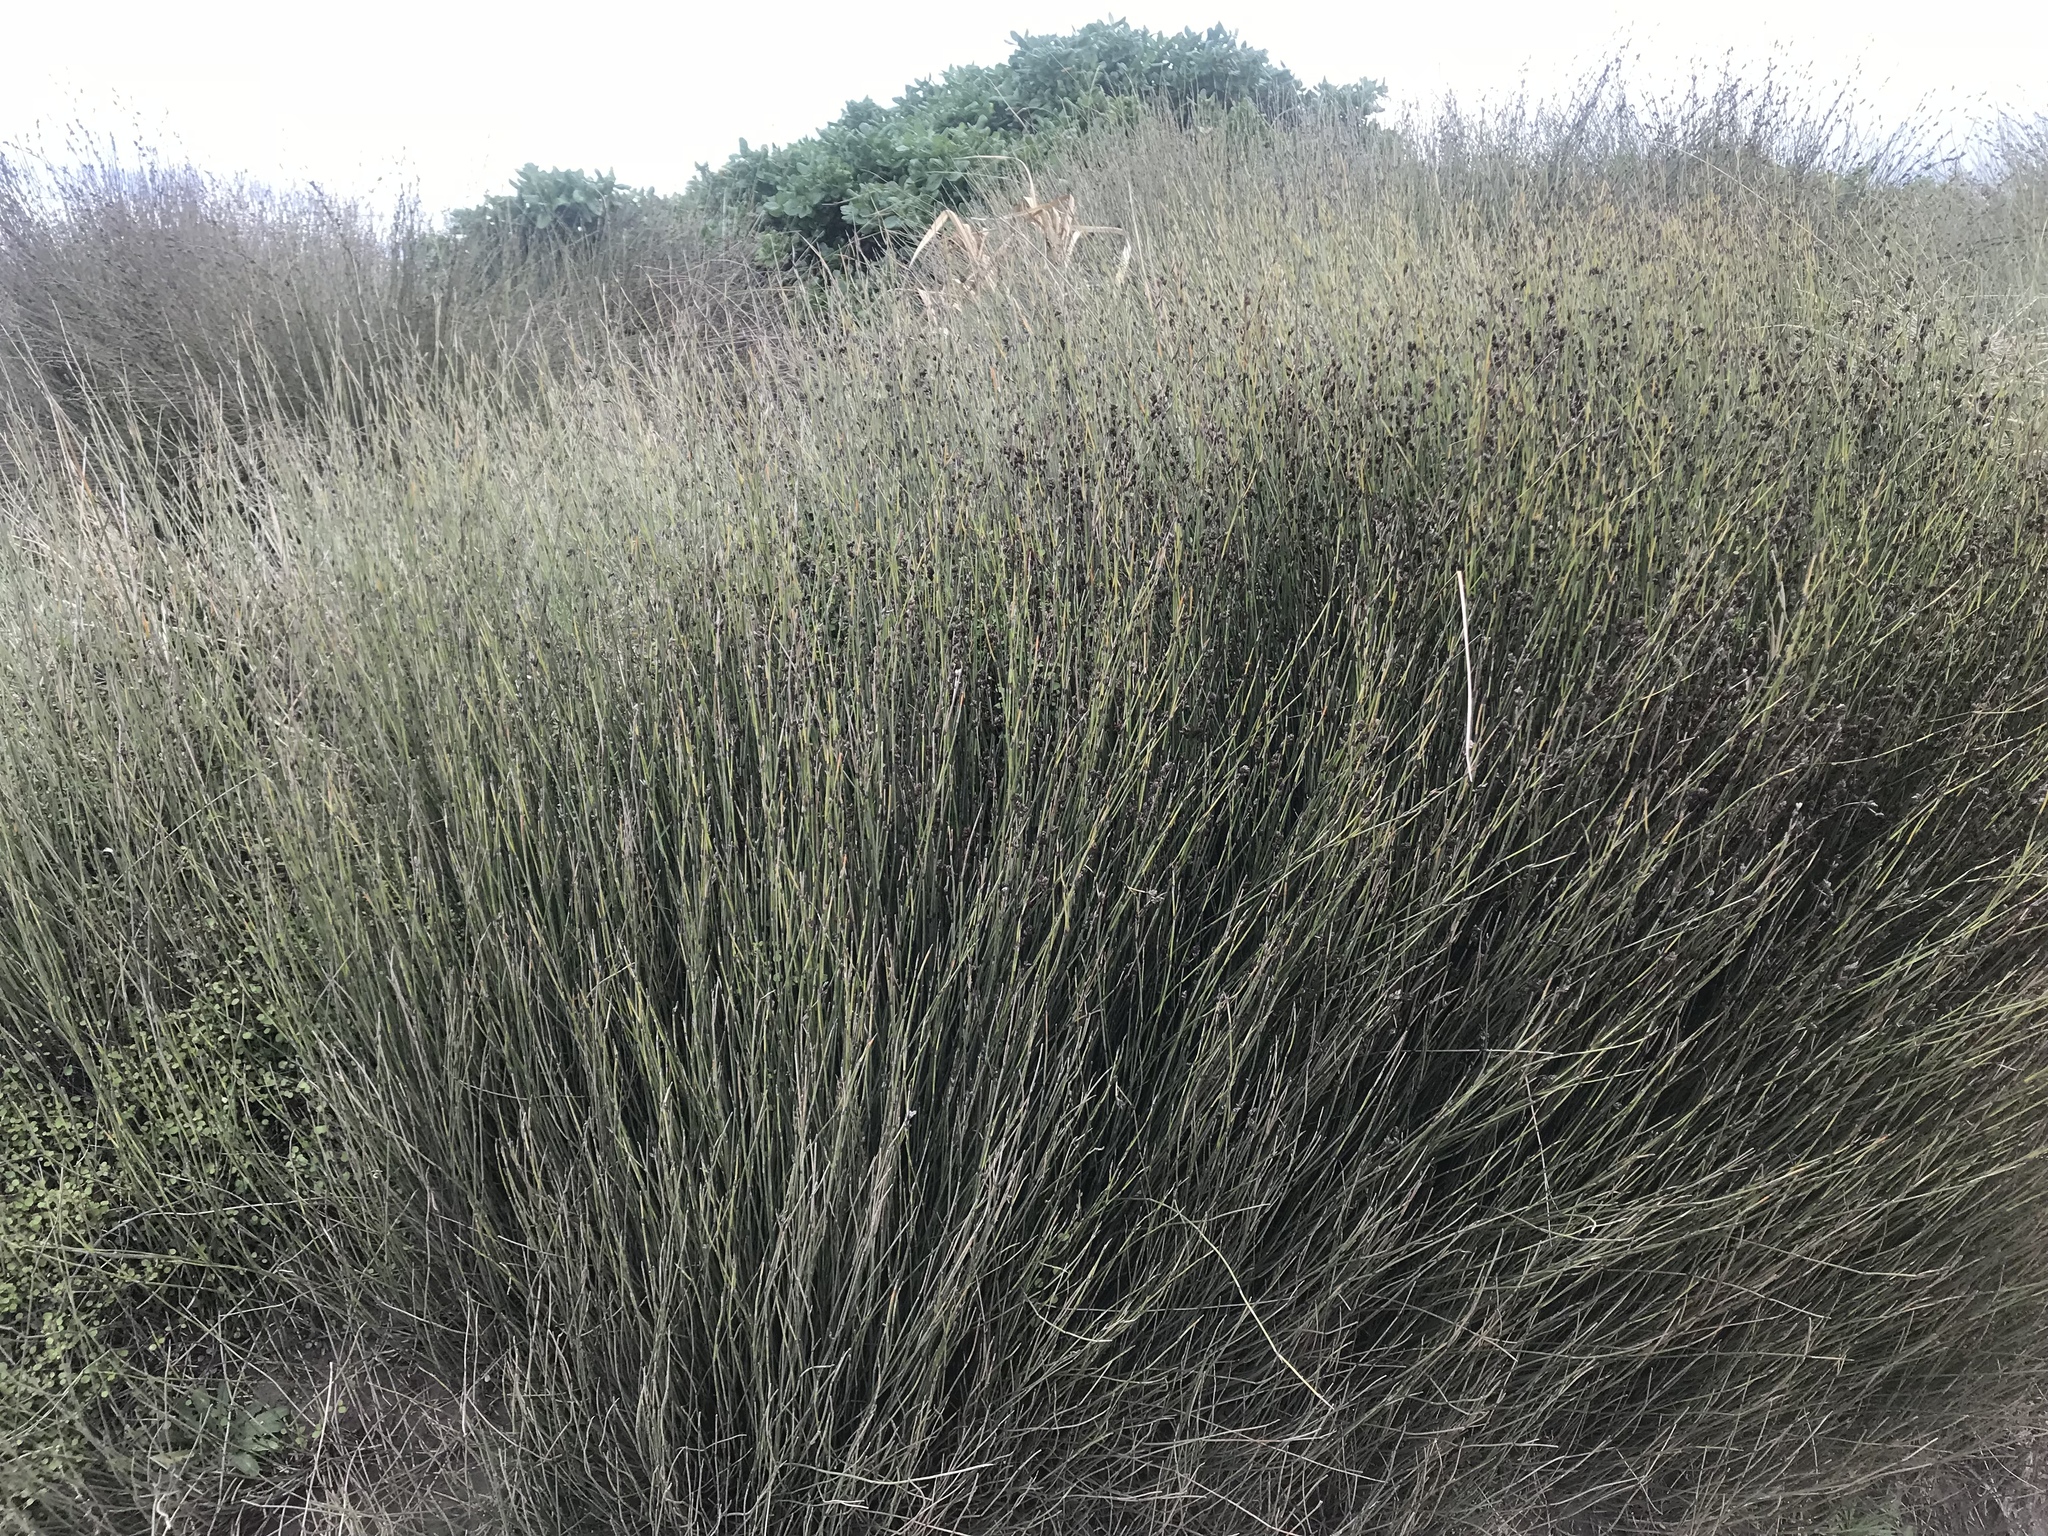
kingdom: Plantae
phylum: Tracheophyta
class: Liliopsida
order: Poales
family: Restionaceae
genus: Apodasmia
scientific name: Apodasmia similis
